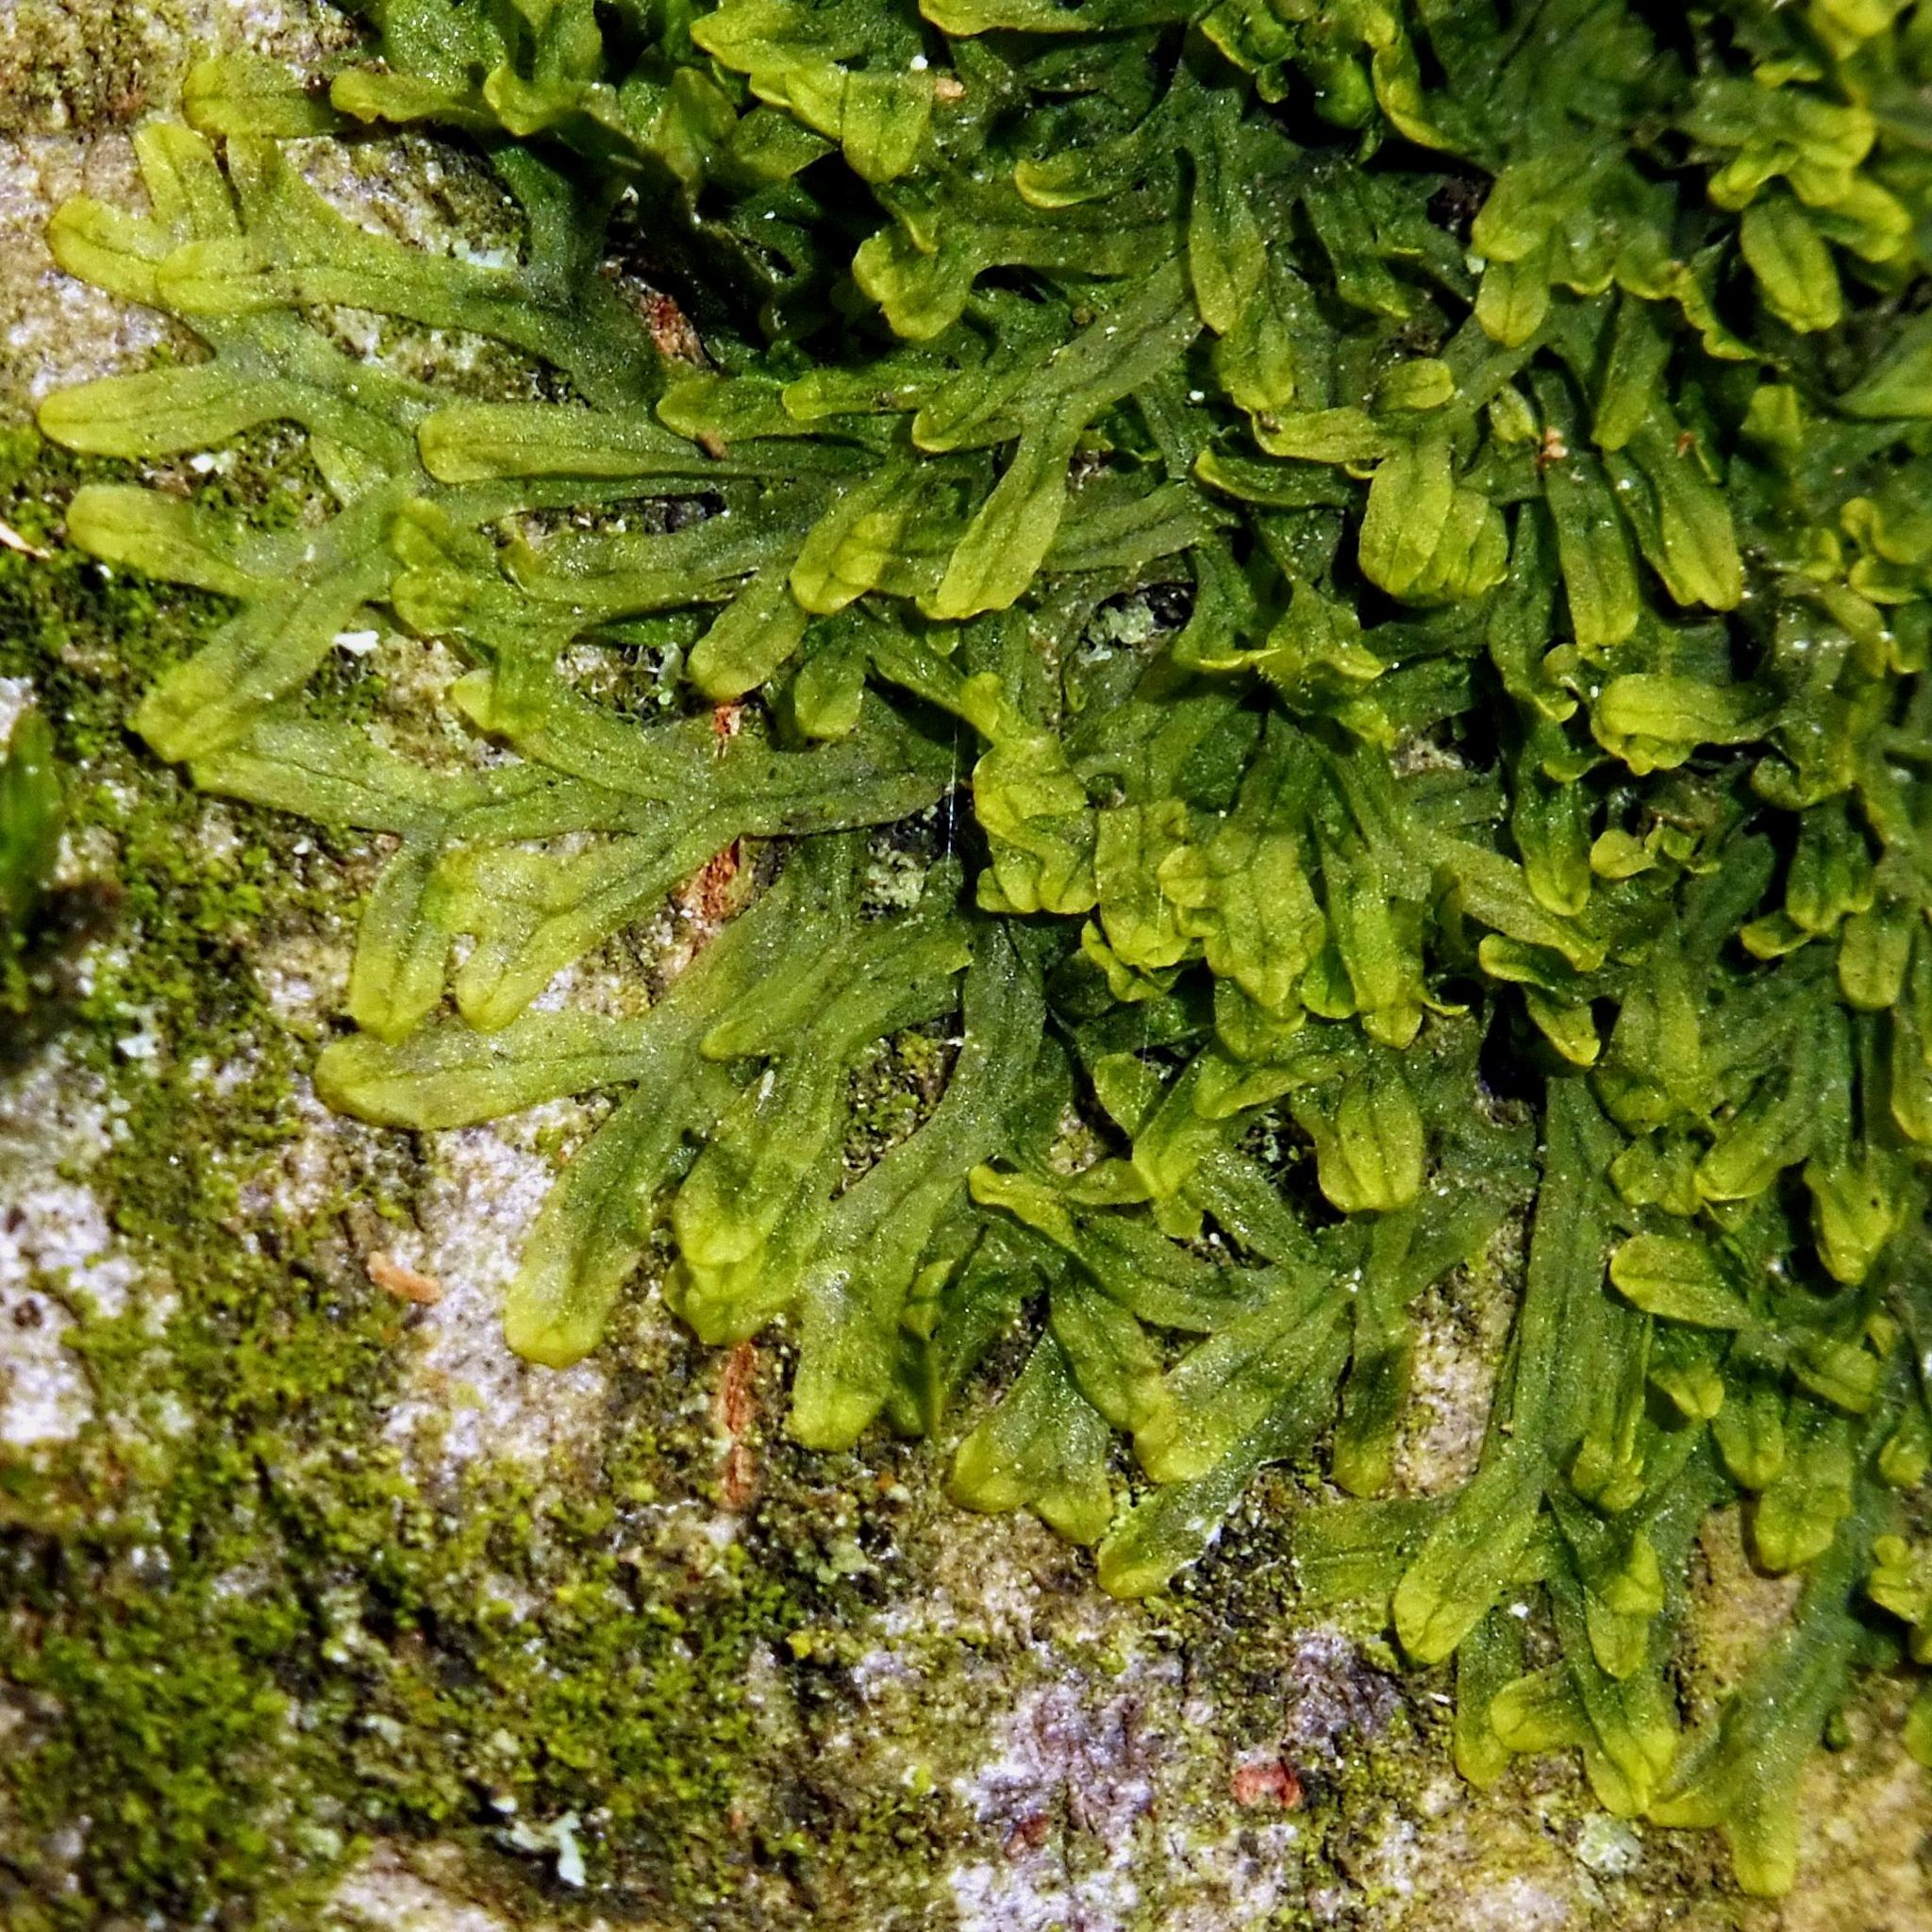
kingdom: Plantae
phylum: Marchantiophyta
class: Jungermanniopsida
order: Metzgeriales
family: Metzgeriaceae
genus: Metzgeria
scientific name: Metzgeria furcata
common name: Forked veilwort
